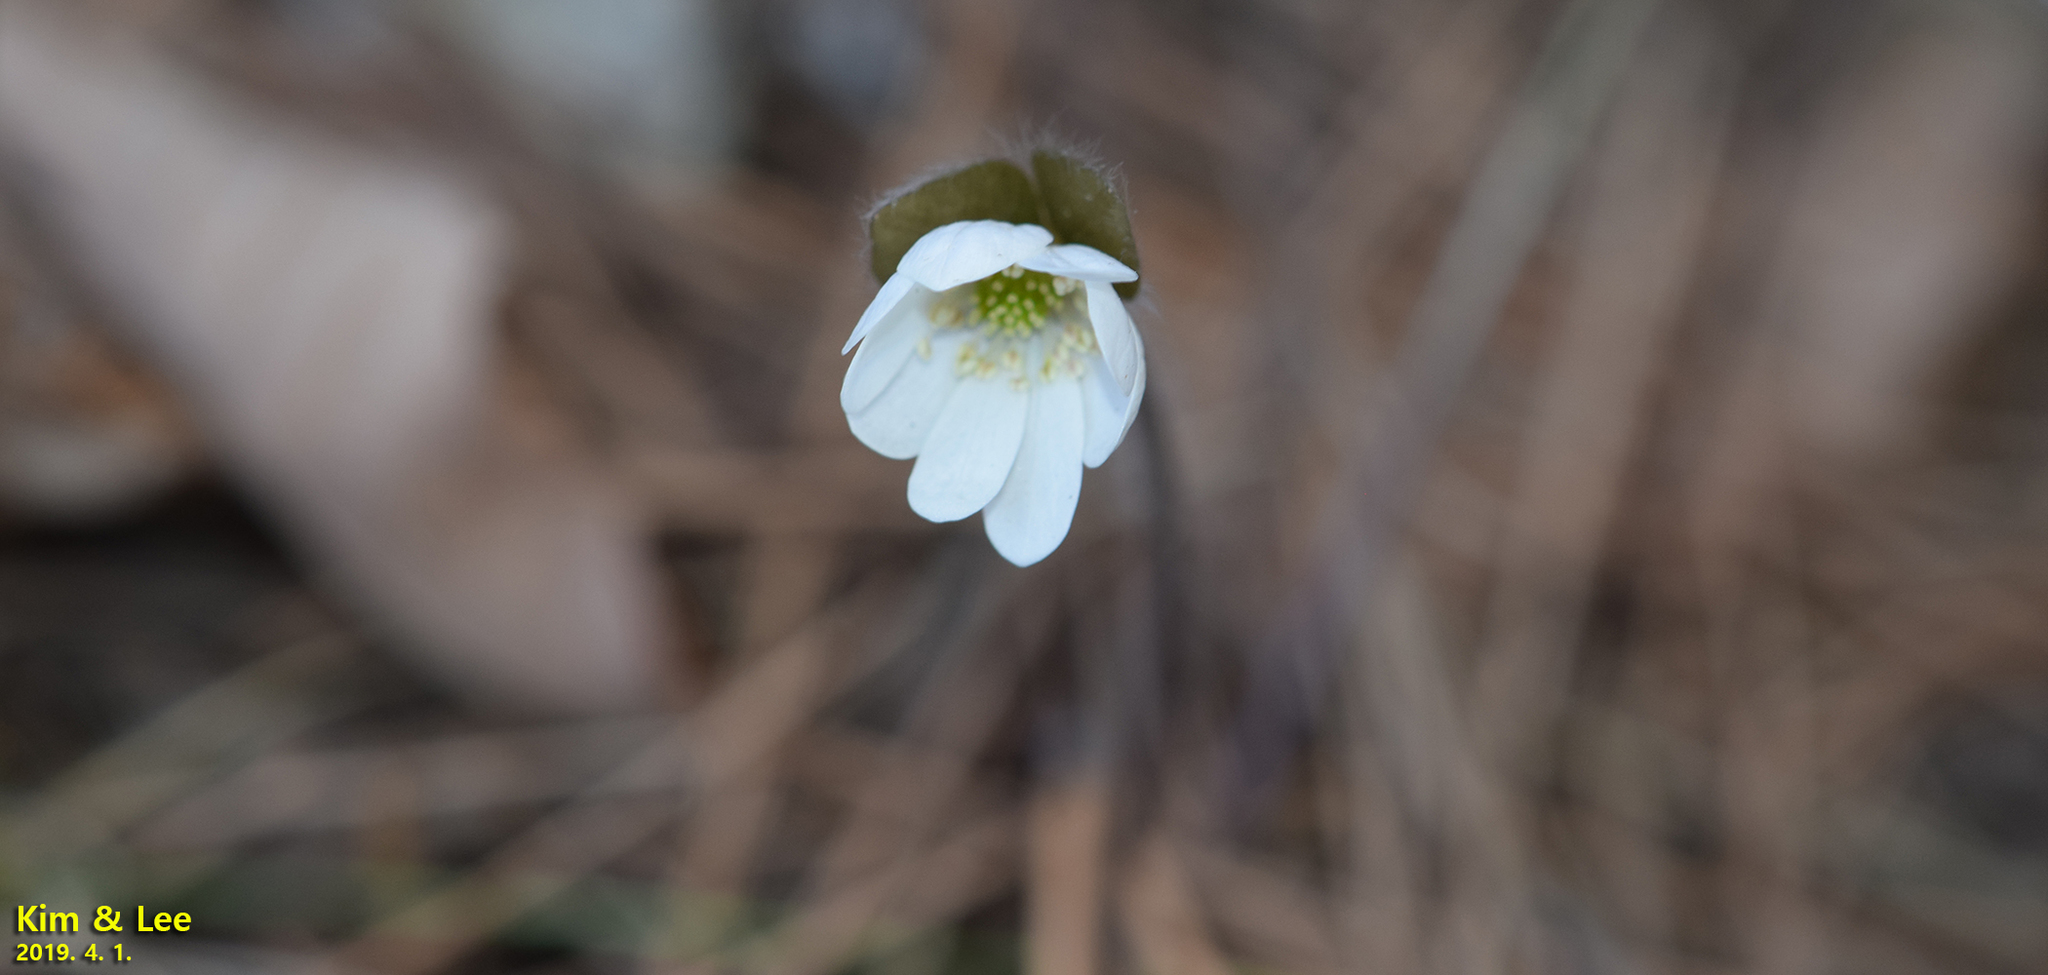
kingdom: Plantae
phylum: Tracheophyta
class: Magnoliopsida
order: Ranunculales
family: Ranunculaceae
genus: Hepatica
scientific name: Hepatica nobilis
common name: Liverleaf
